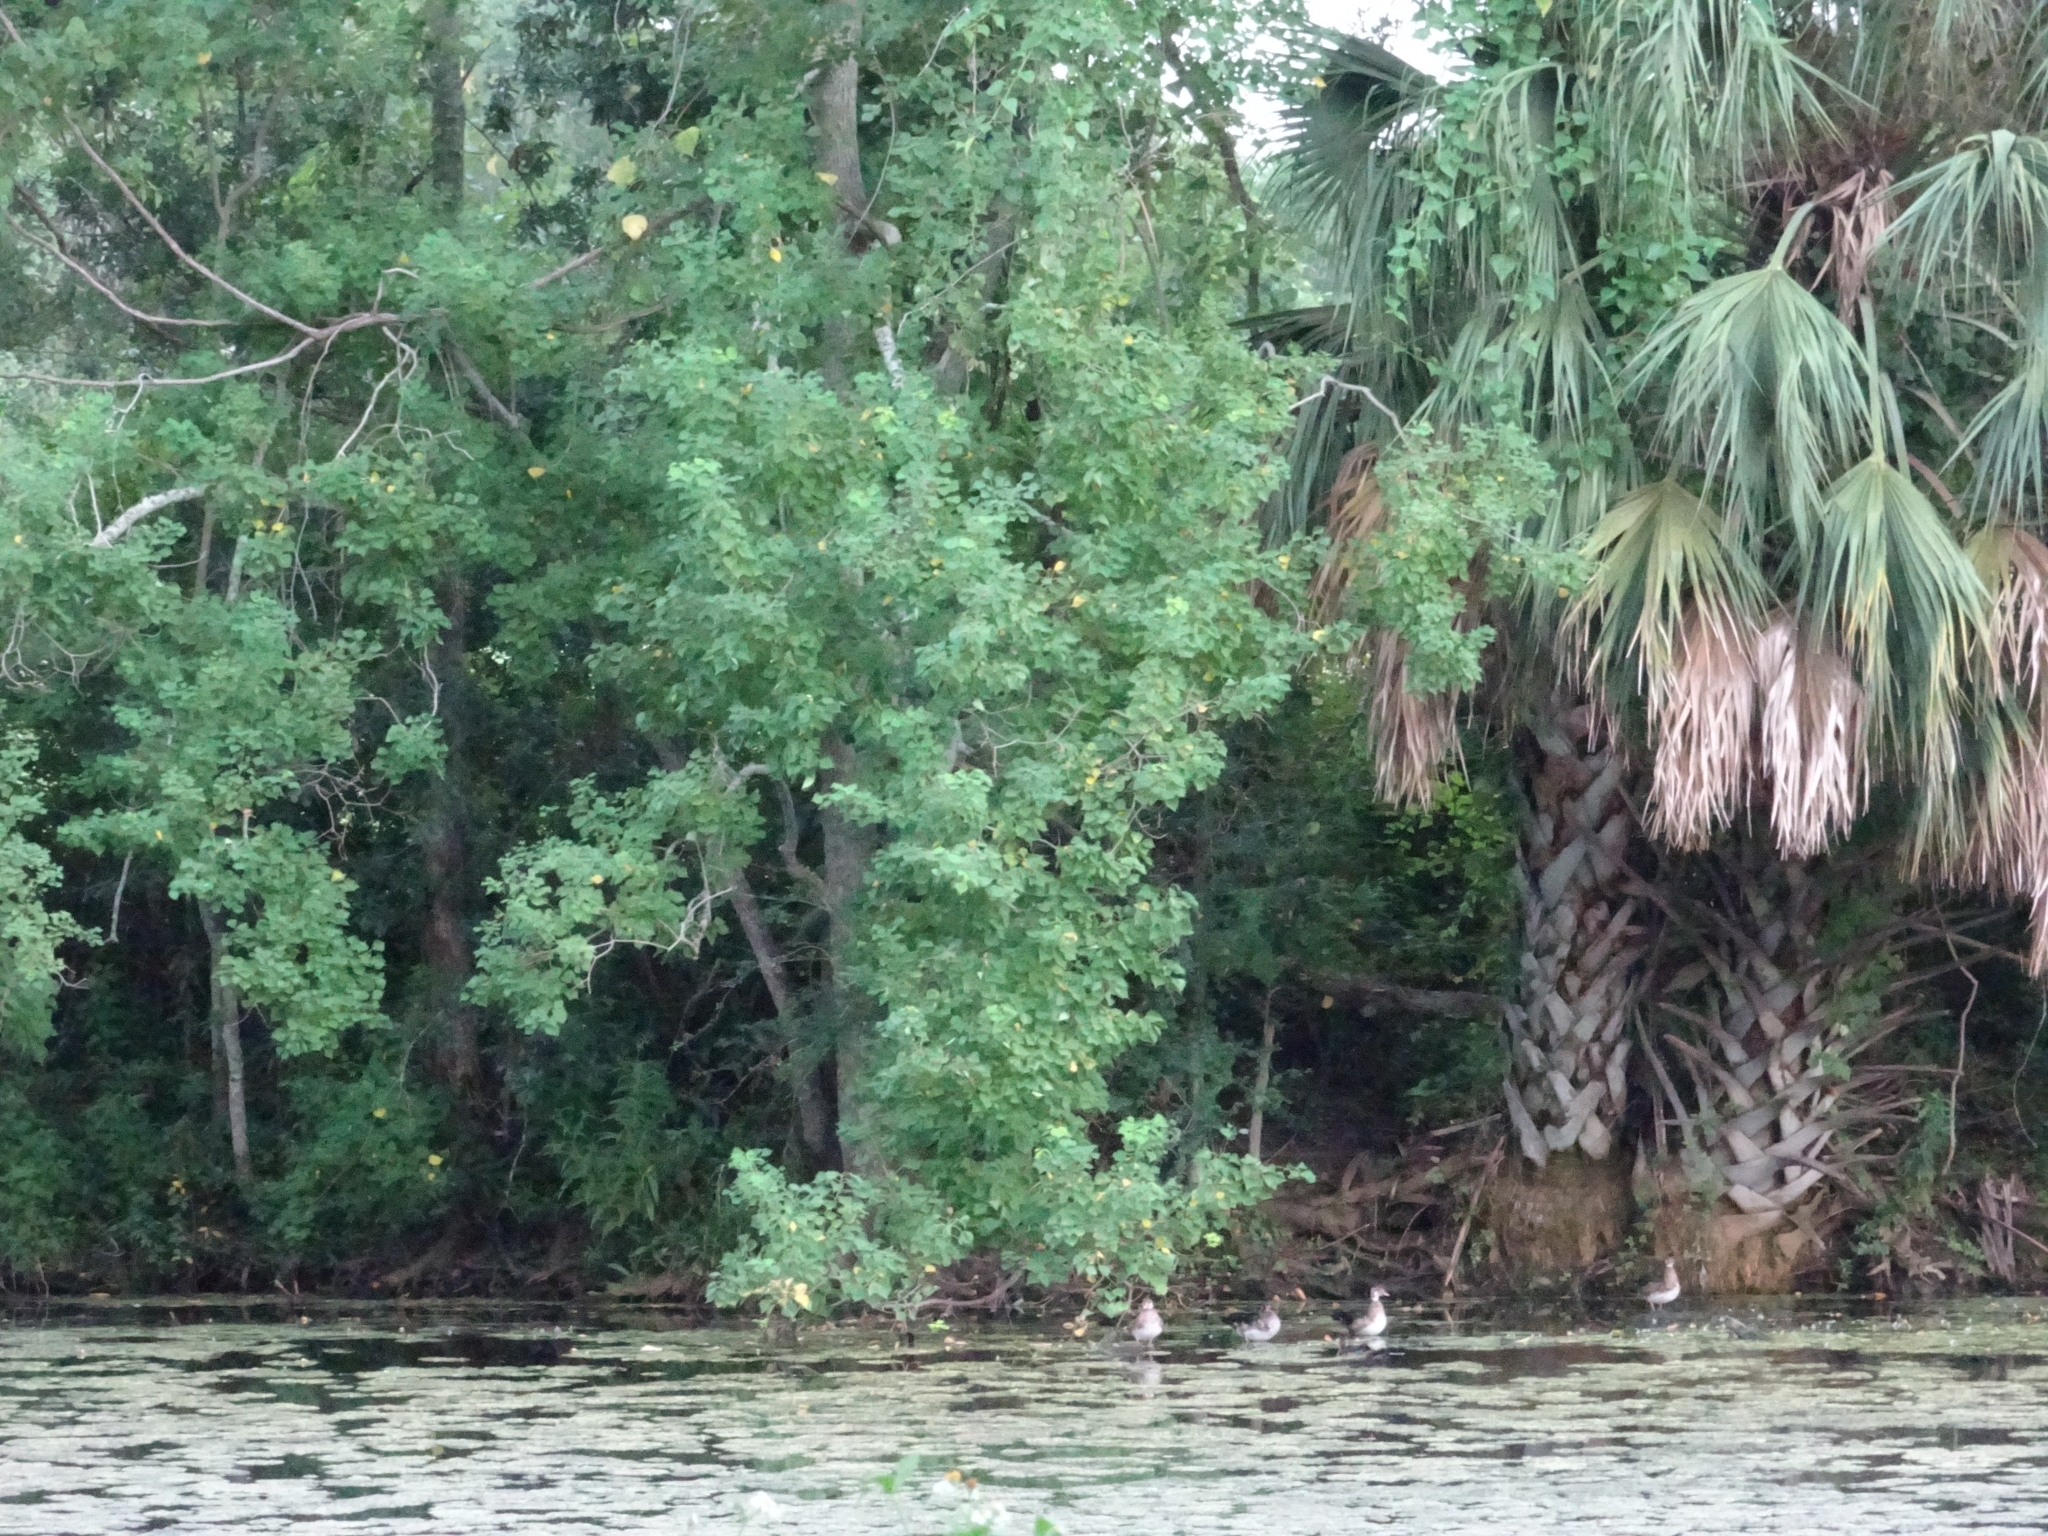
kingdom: Plantae
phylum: Tracheophyta
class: Magnoliopsida
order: Malpighiales
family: Euphorbiaceae
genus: Triadica
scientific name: Triadica sebifera
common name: Chinese tallow
